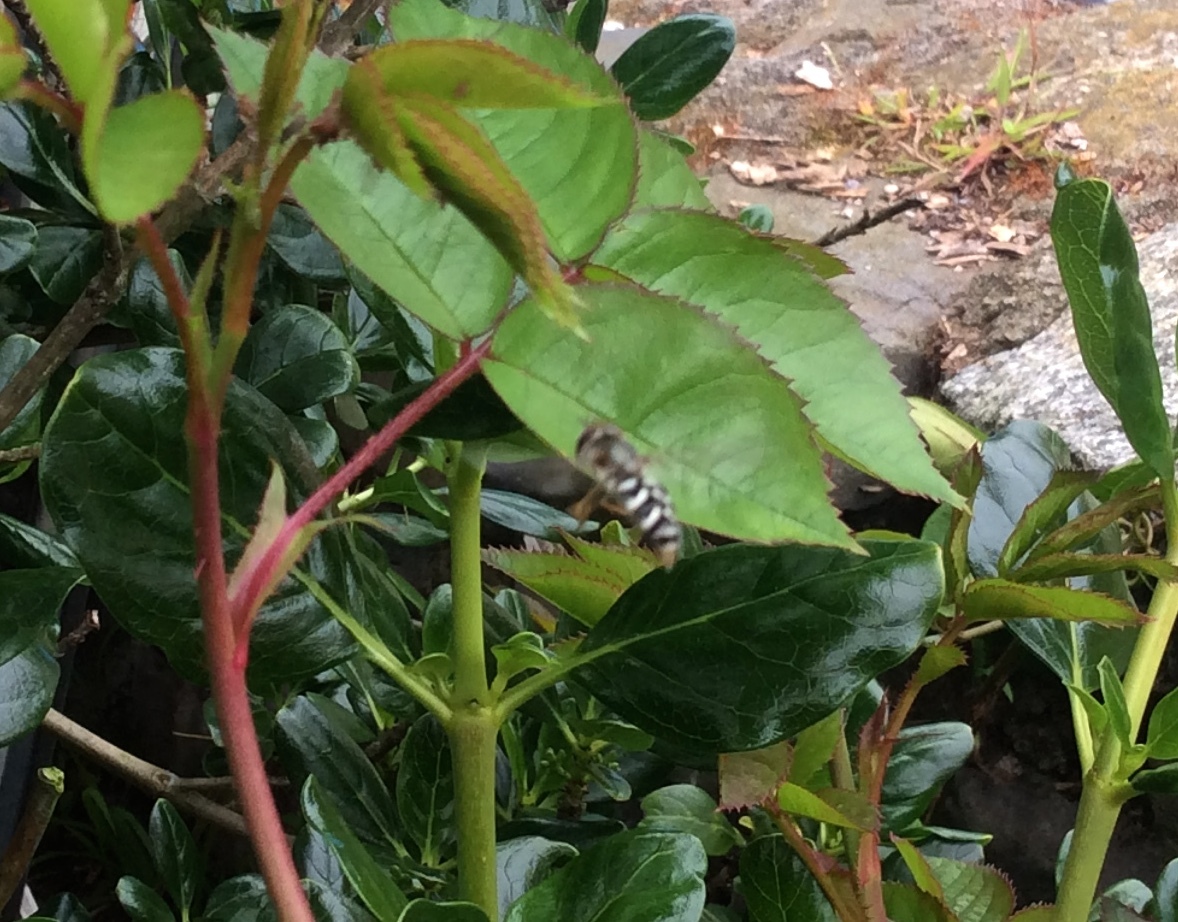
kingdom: Animalia
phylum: Arthropoda
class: Insecta
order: Diptera
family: Syrphidae
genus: Scaeva
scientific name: Scaeva affinis
